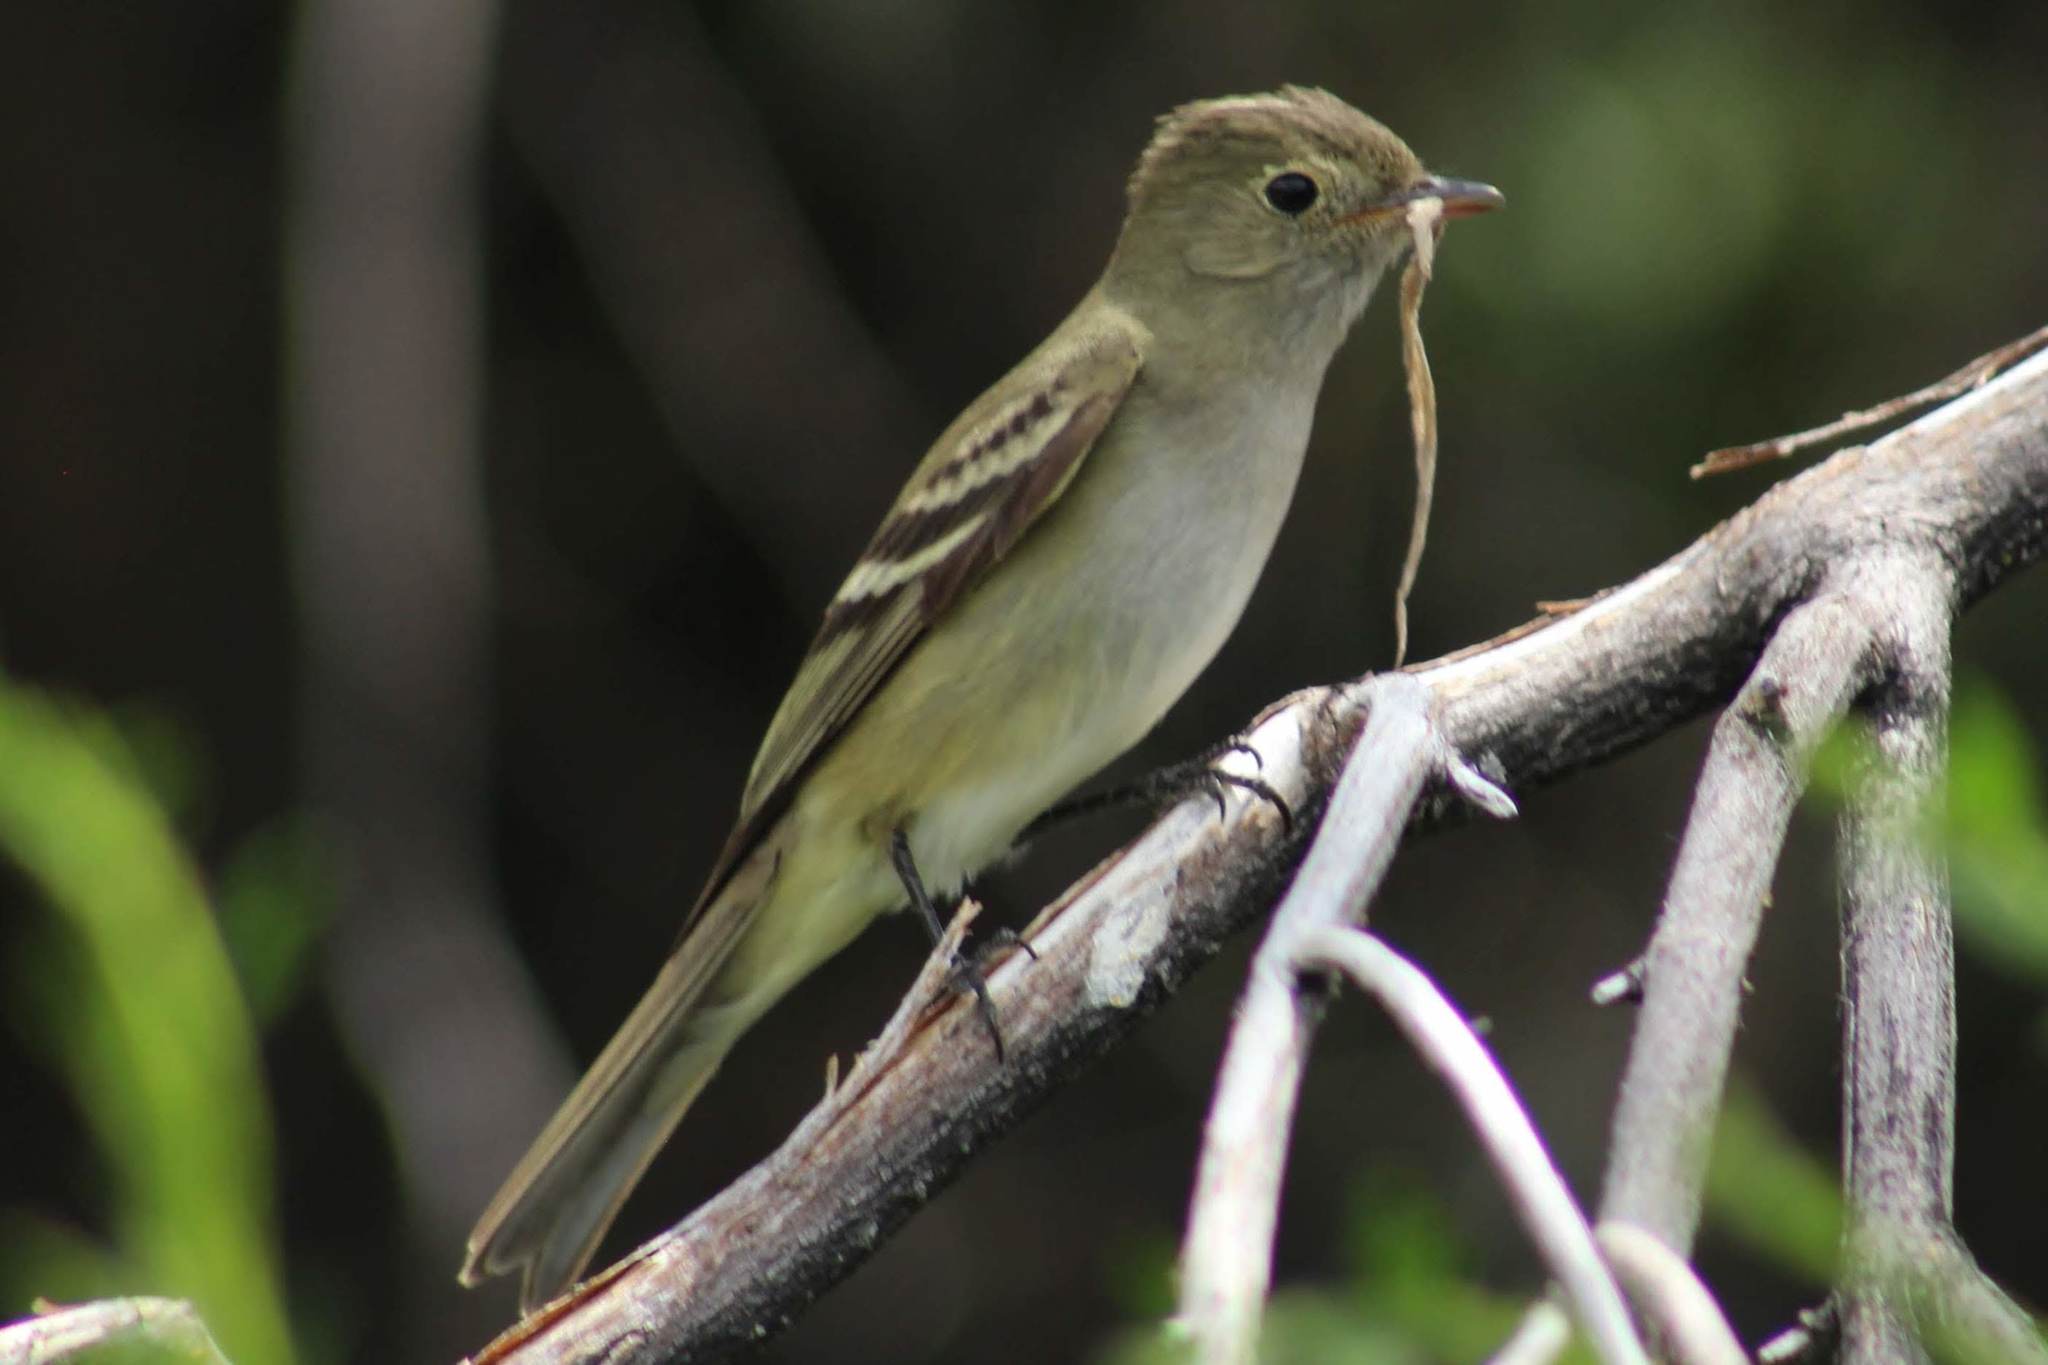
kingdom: Animalia
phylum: Chordata
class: Aves
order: Passeriformes
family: Tyrannidae
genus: Elaenia
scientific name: Elaenia albiceps
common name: White-crested elaenia
